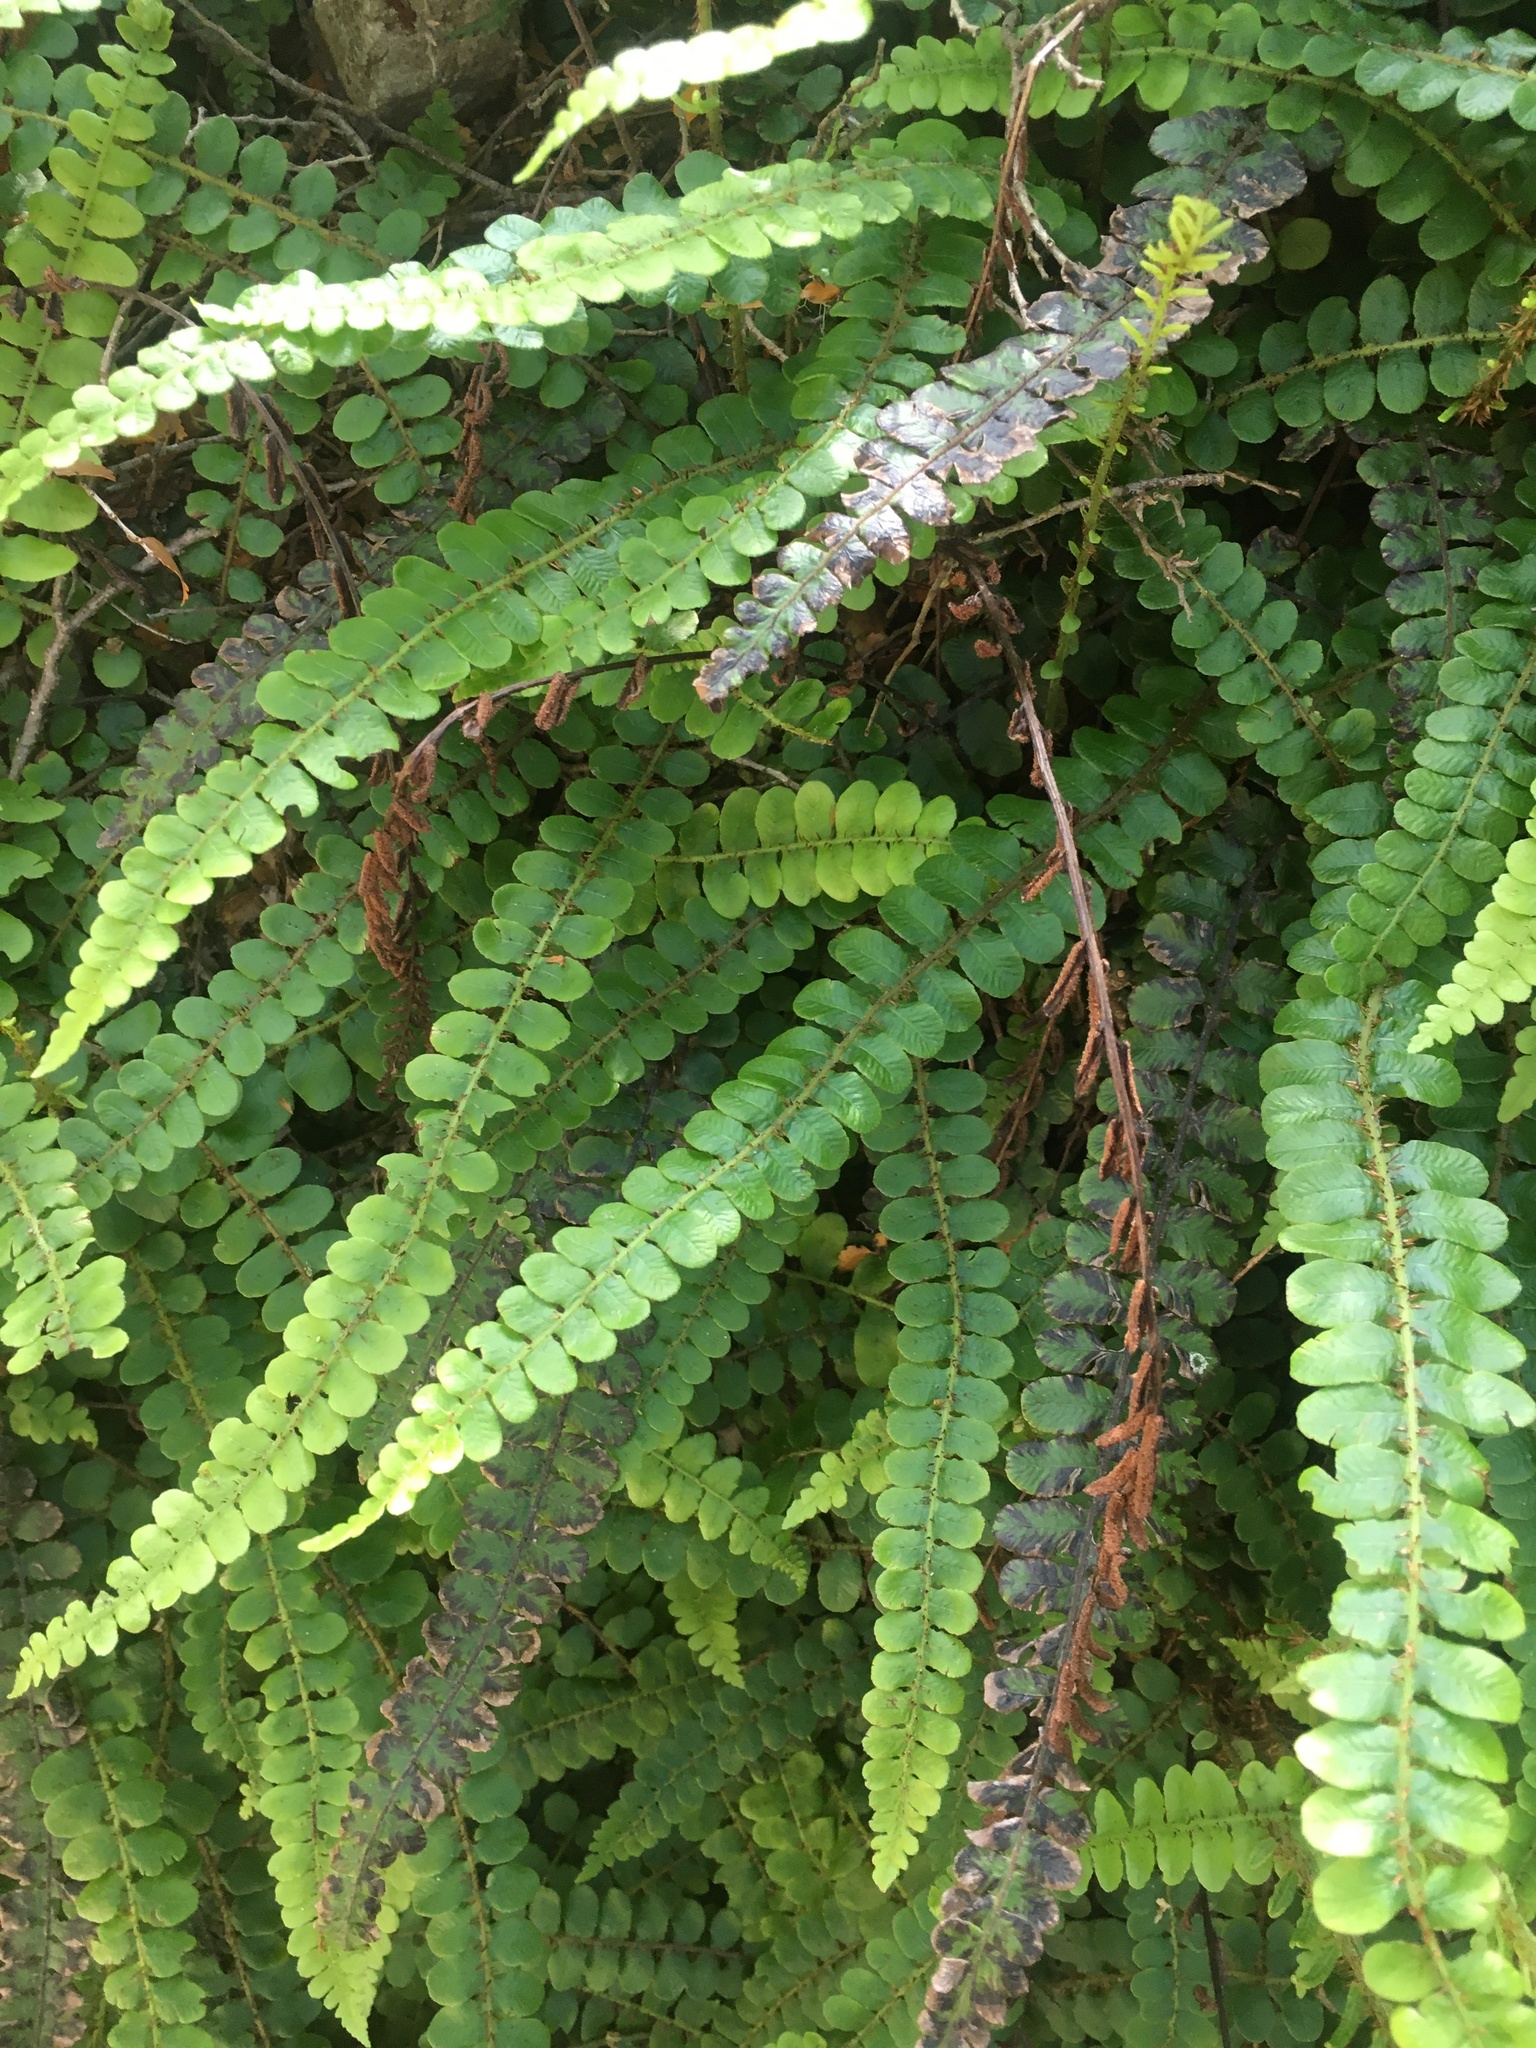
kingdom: Plantae
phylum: Tracheophyta
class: Polypodiopsida
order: Polypodiales
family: Blechnaceae
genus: Cranfillia
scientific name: Cranfillia fluviatilis
